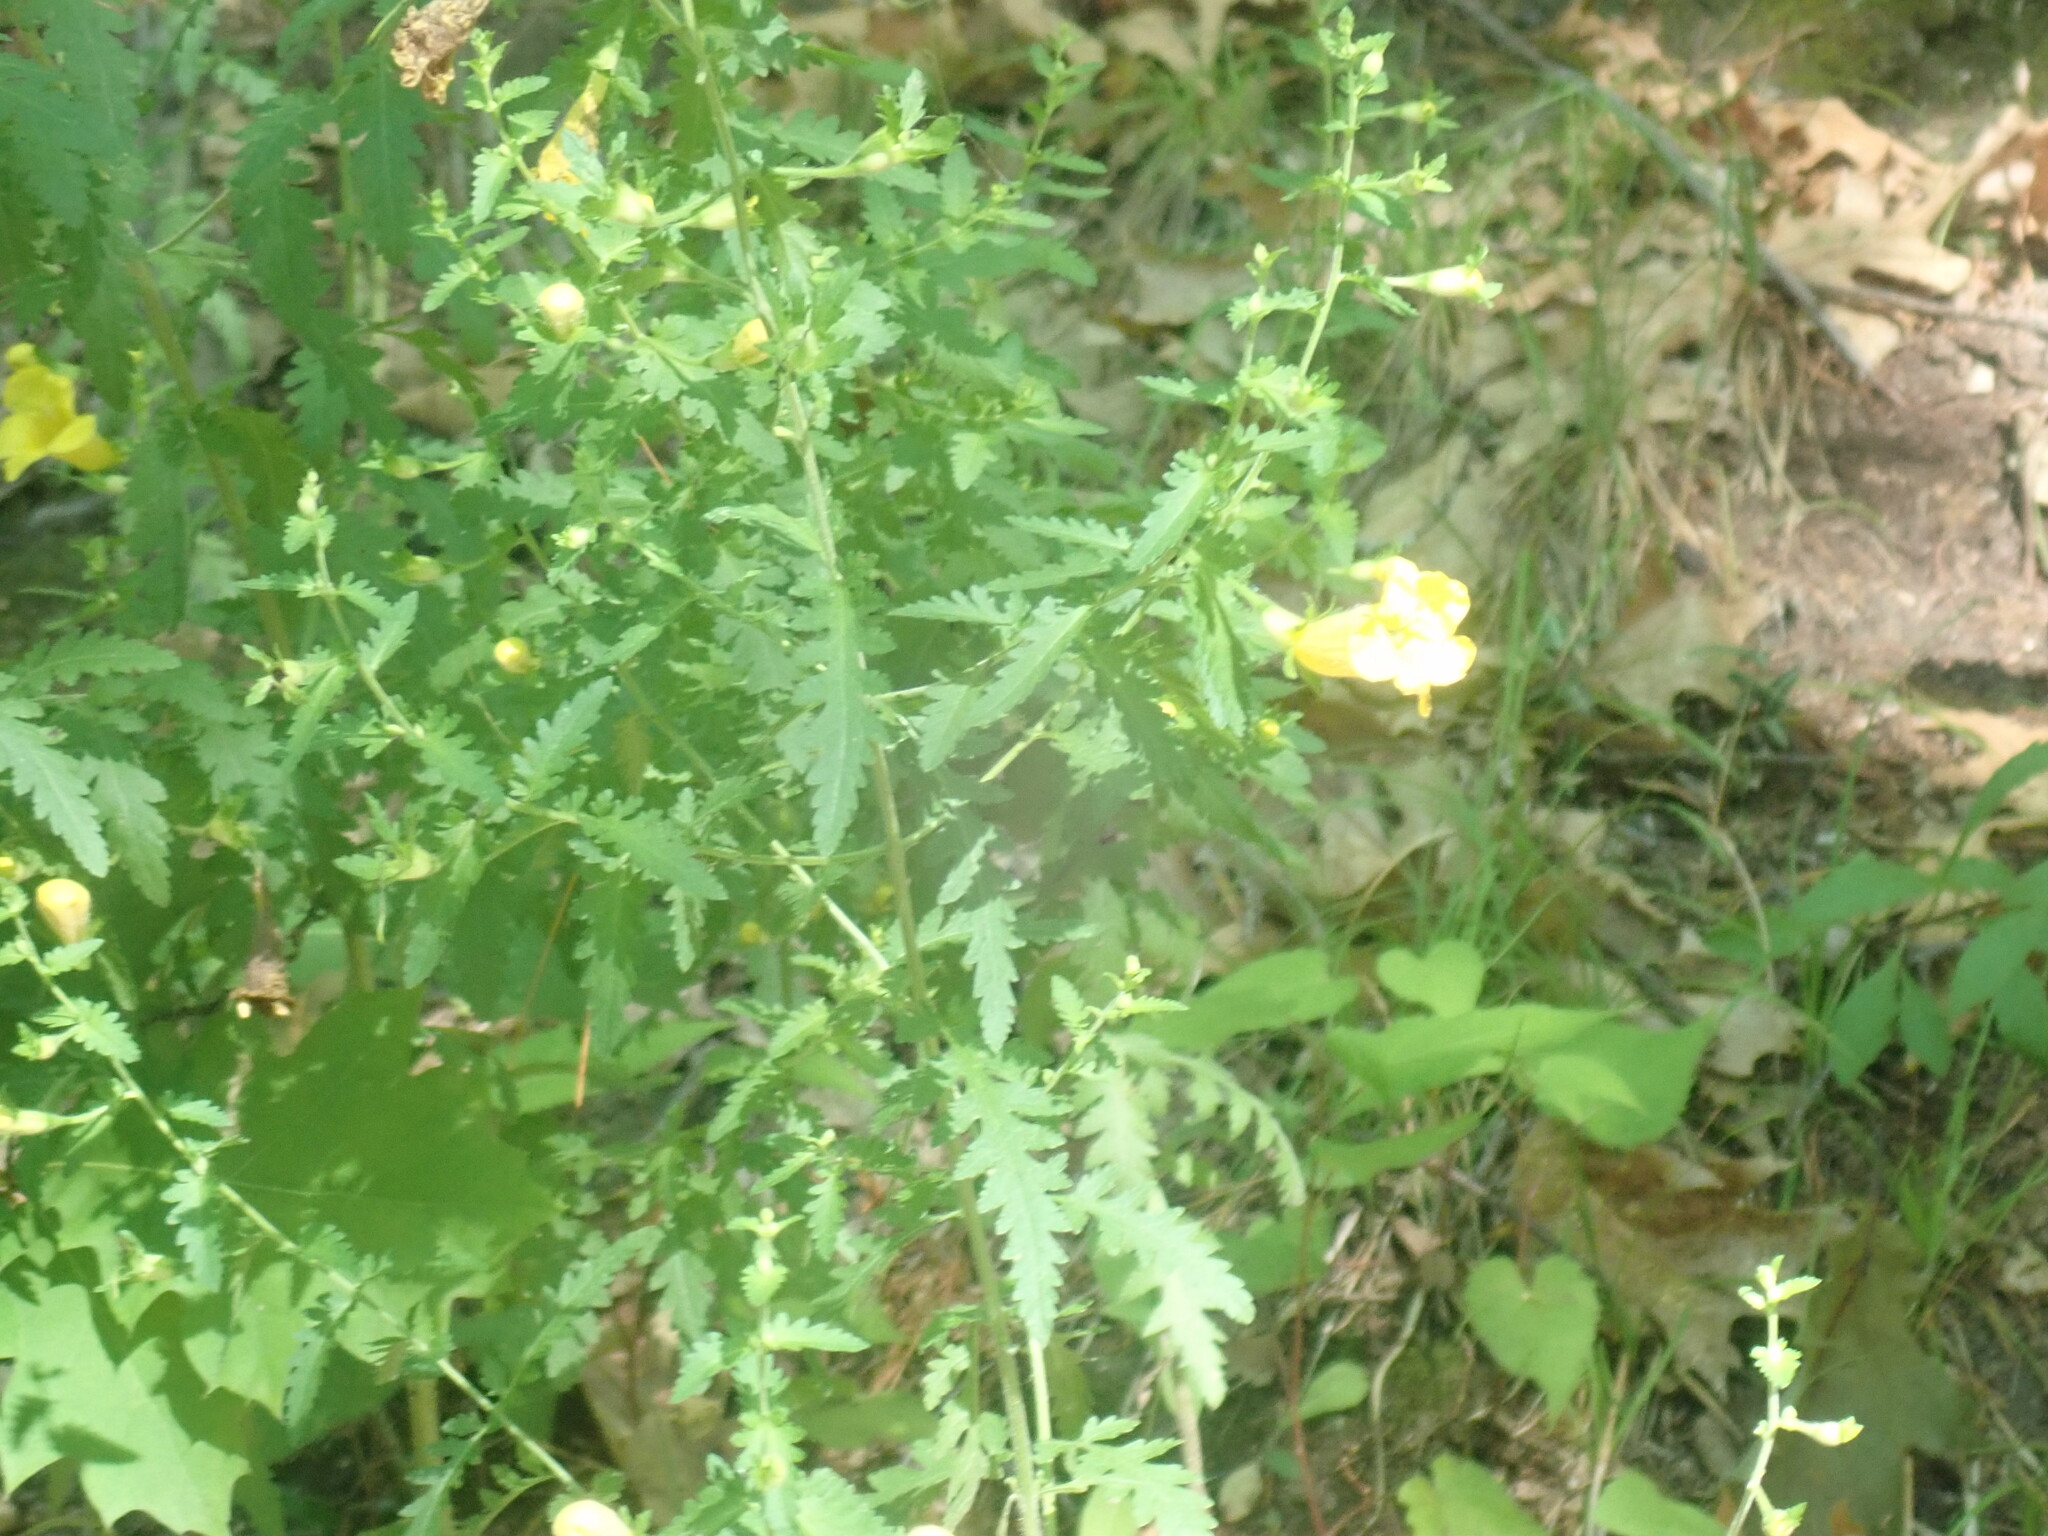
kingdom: Plantae
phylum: Tracheophyta
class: Magnoliopsida
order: Lamiales
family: Orobanchaceae
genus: Aureolaria
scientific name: Aureolaria pedicularia
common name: Annual false foxglove
